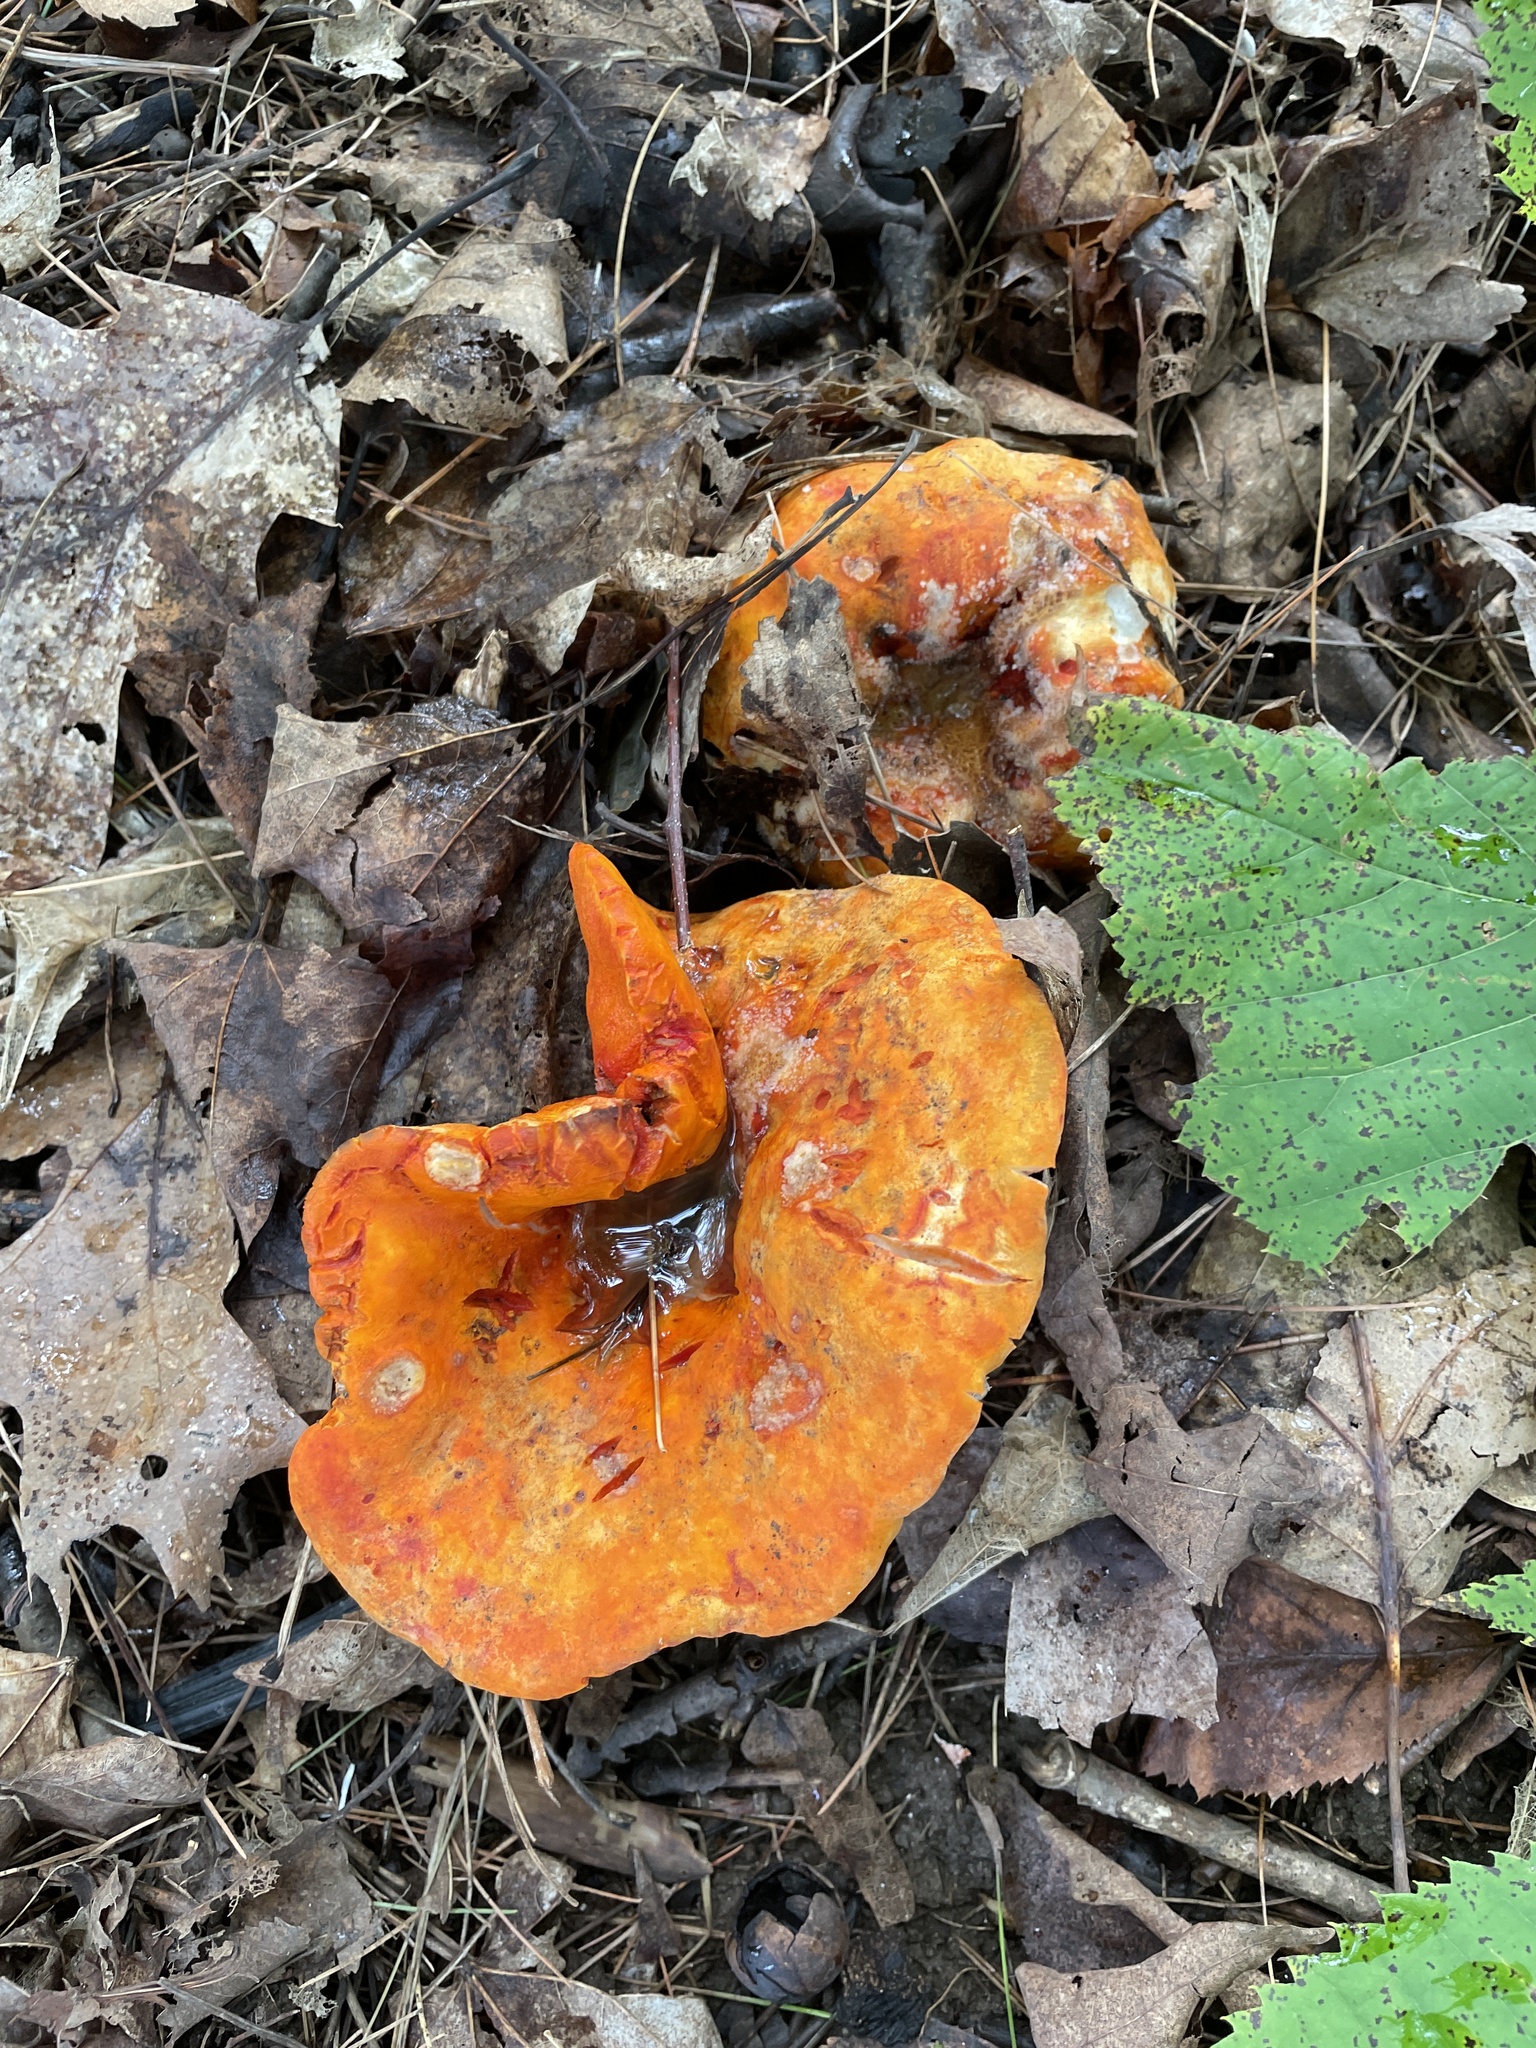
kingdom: Fungi
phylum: Ascomycota
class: Sordariomycetes
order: Hypocreales
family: Hypocreaceae
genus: Hypomyces
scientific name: Hypomyces lactifluorum
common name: Lobster mushroom
